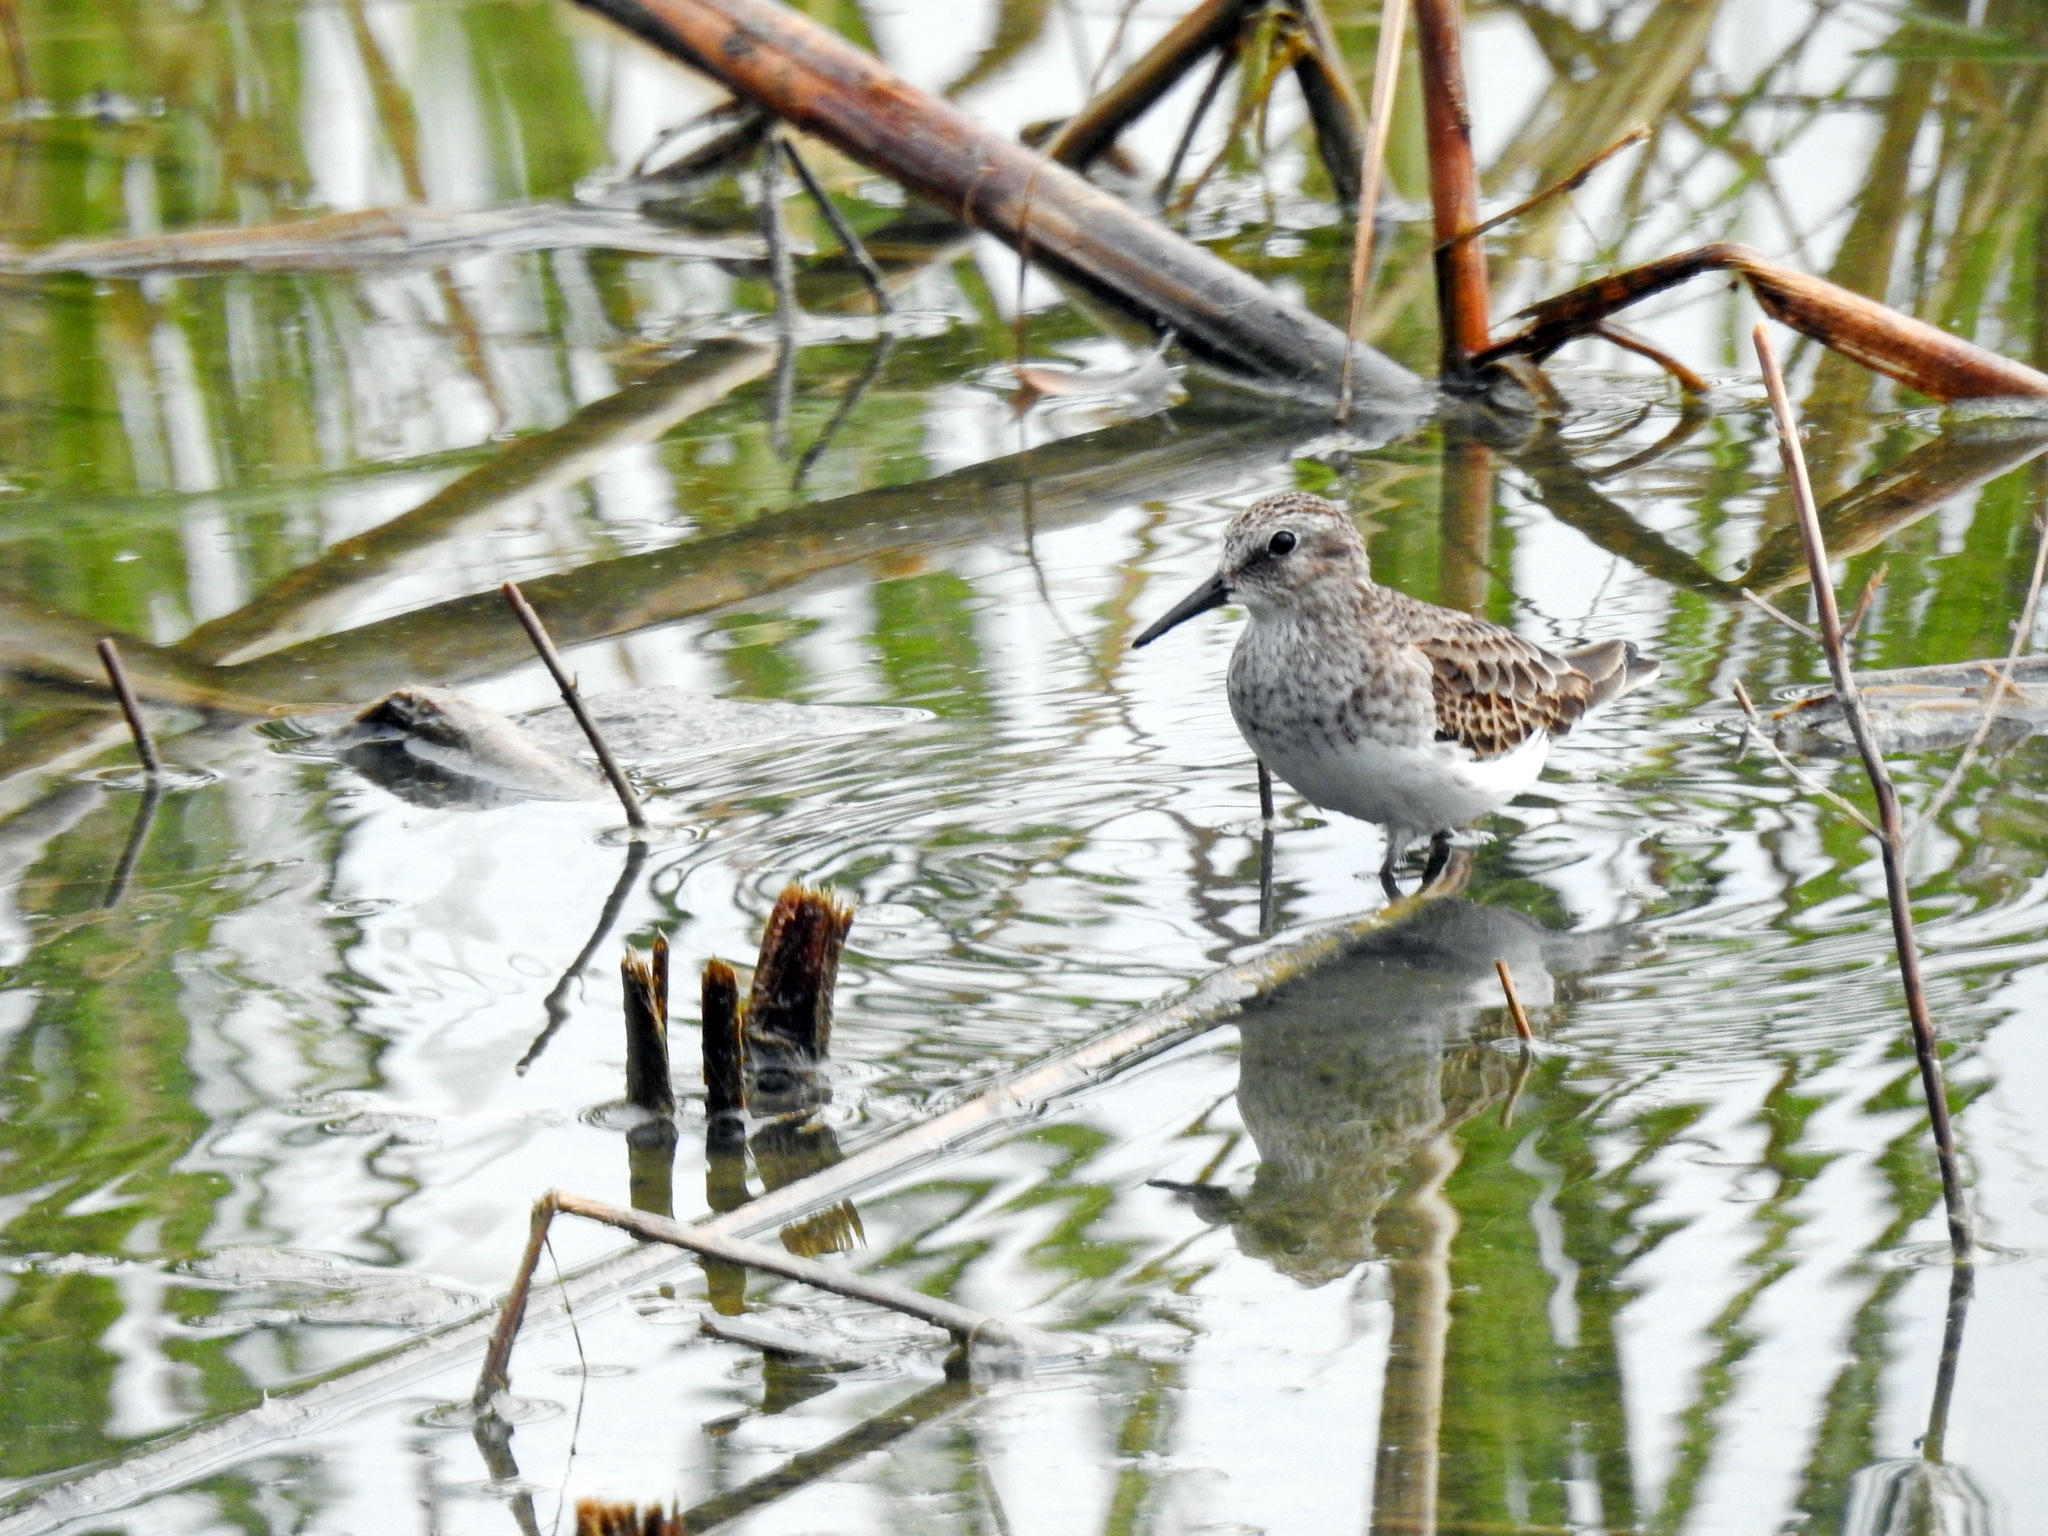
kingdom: Animalia
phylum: Chordata
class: Aves
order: Charadriiformes
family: Scolopacidae
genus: Calidris
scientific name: Calidris minutilla
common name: Least sandpiper
